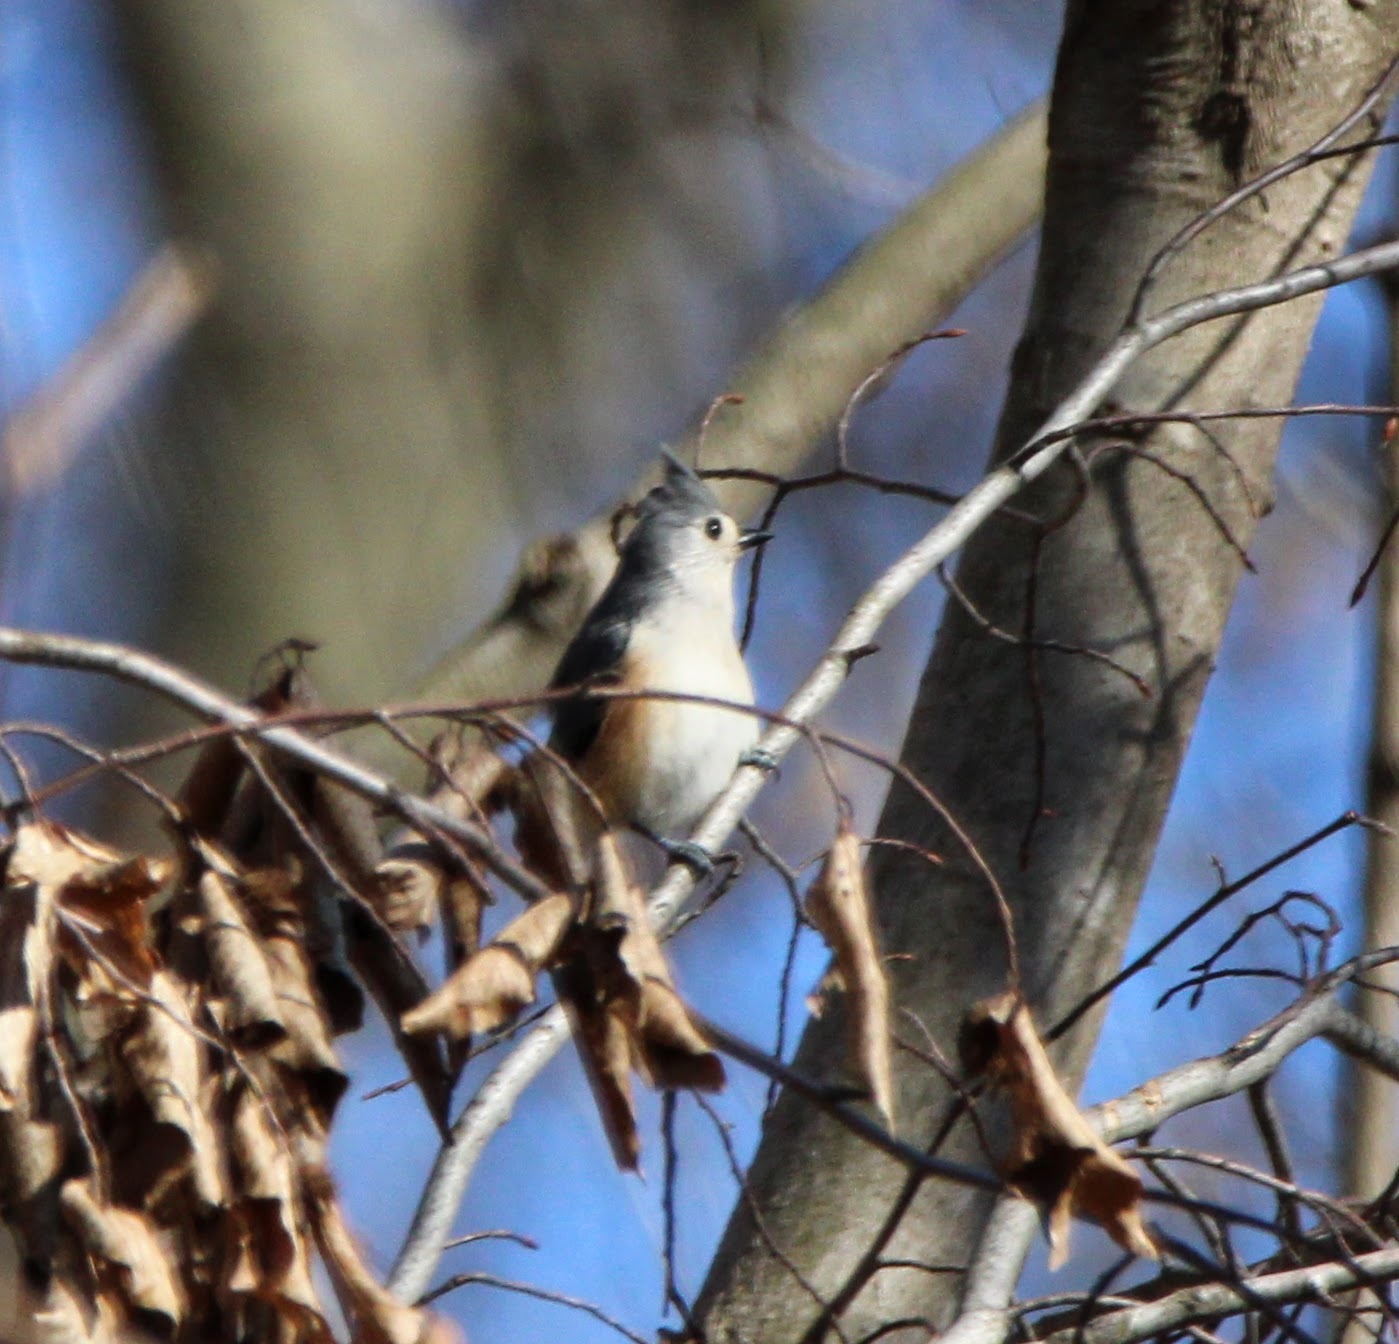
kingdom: Animalia
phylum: Chordata
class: Aves
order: Passeriformes
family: Paridae
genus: Baeolophus
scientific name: Baeolophus bicolor
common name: Tufted titmouse
